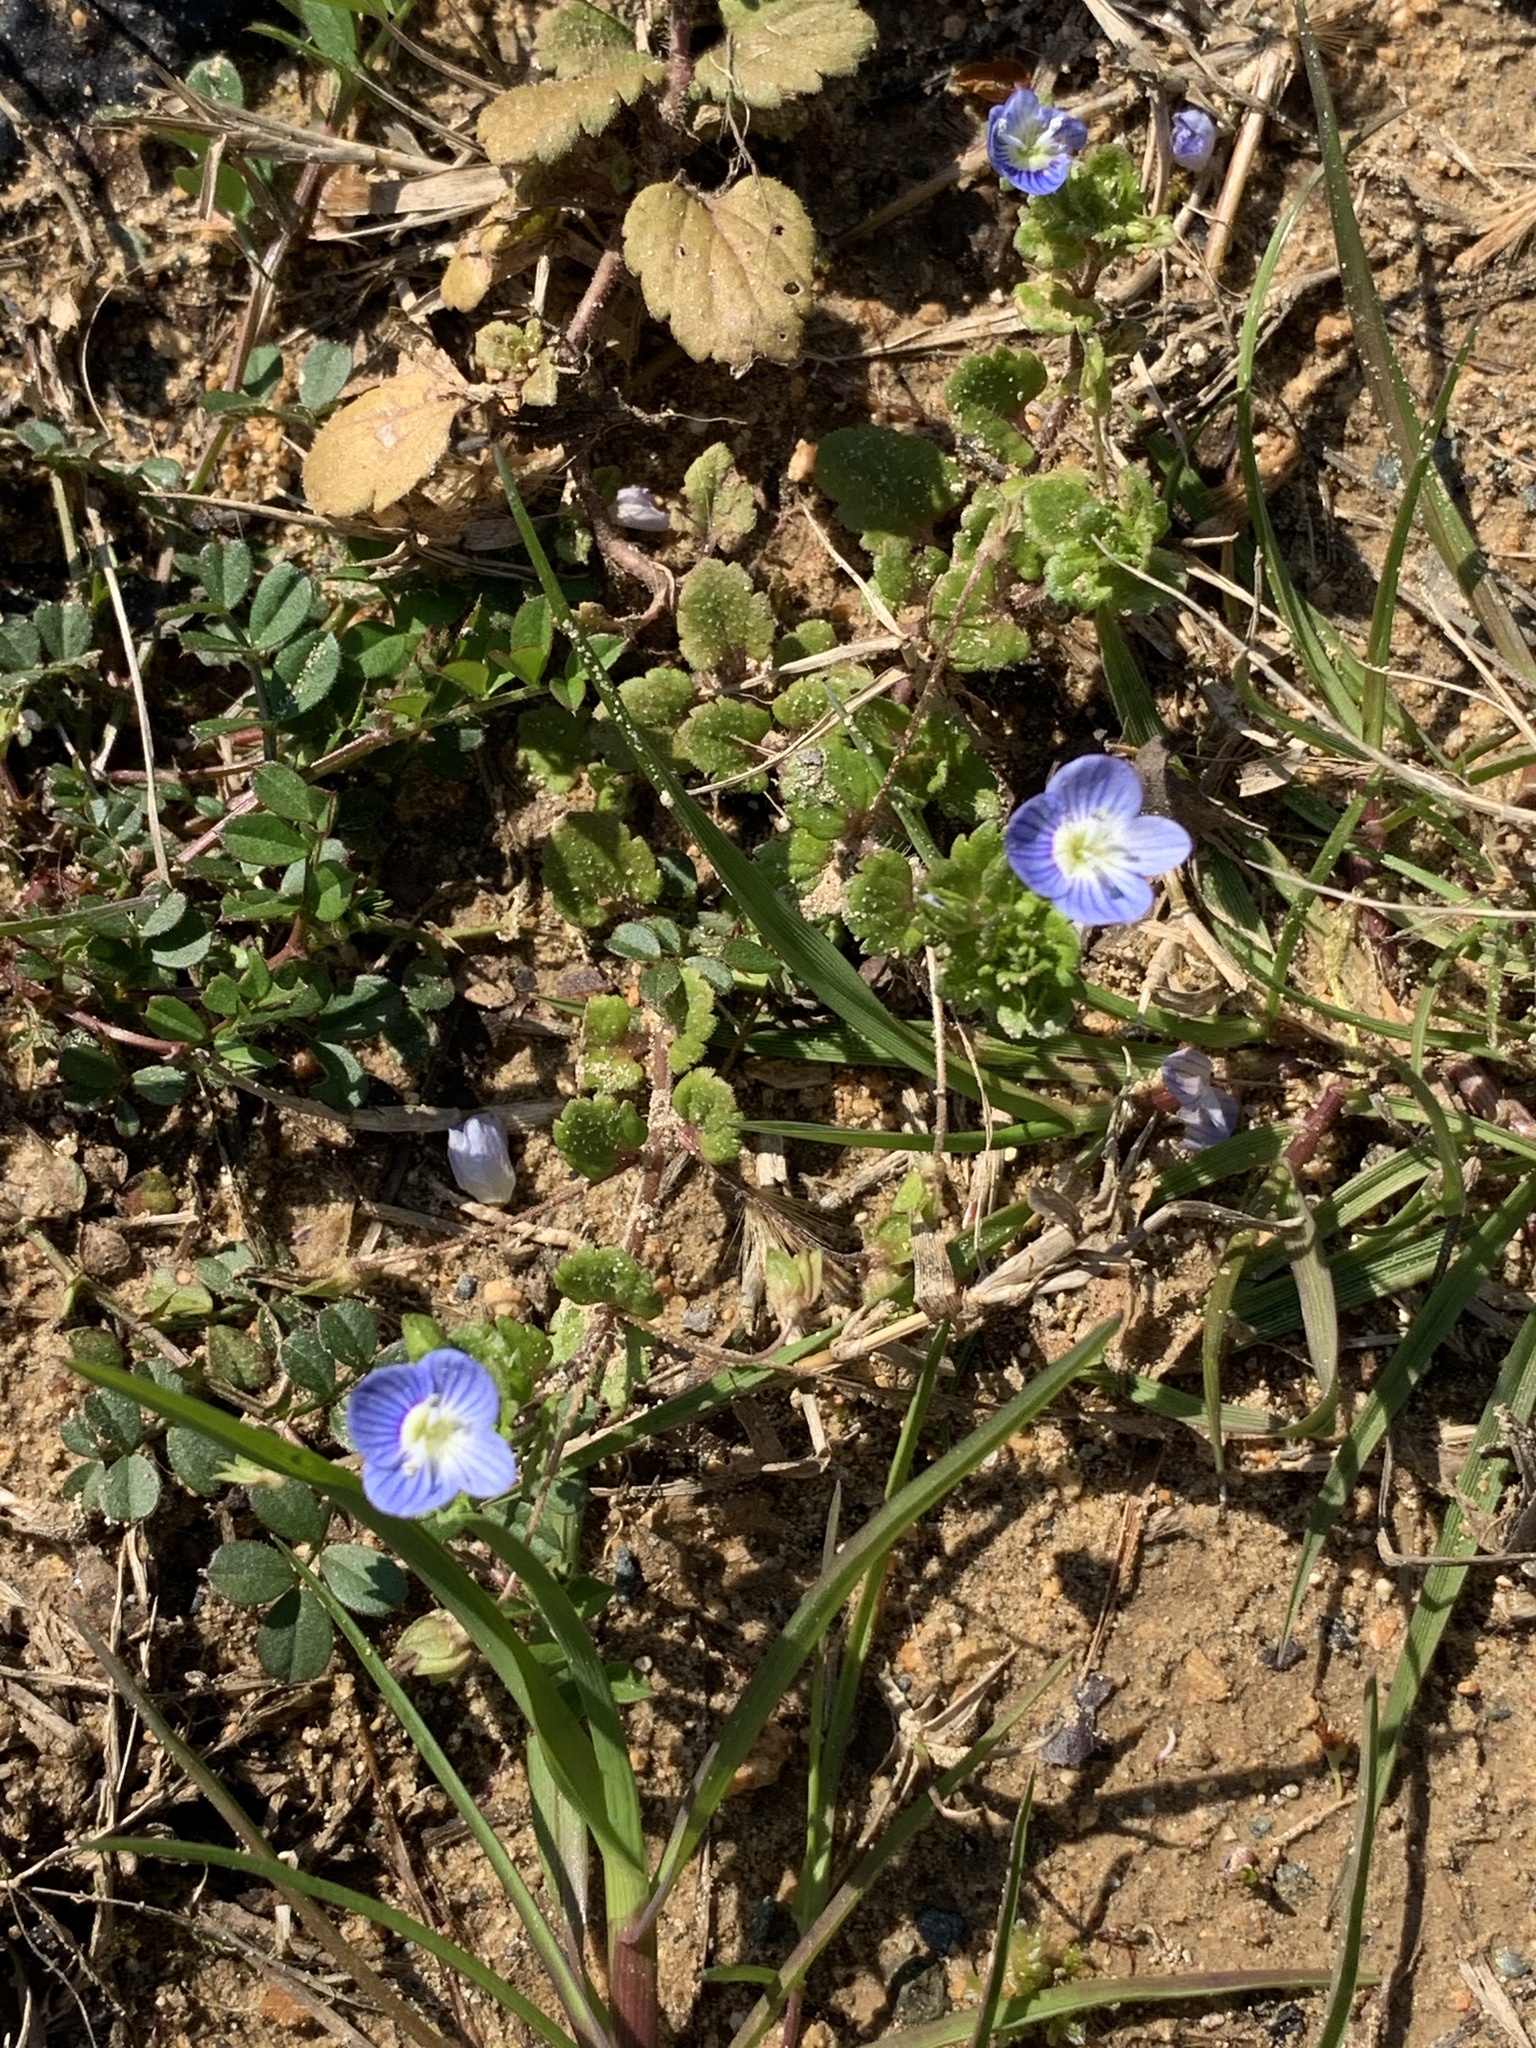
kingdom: Plantae
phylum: Tracheophyta
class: Magnoliopsida
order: Lamiales
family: Plantaginaceae
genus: Veronica
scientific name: Veronica persica
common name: Common field-speedwell
